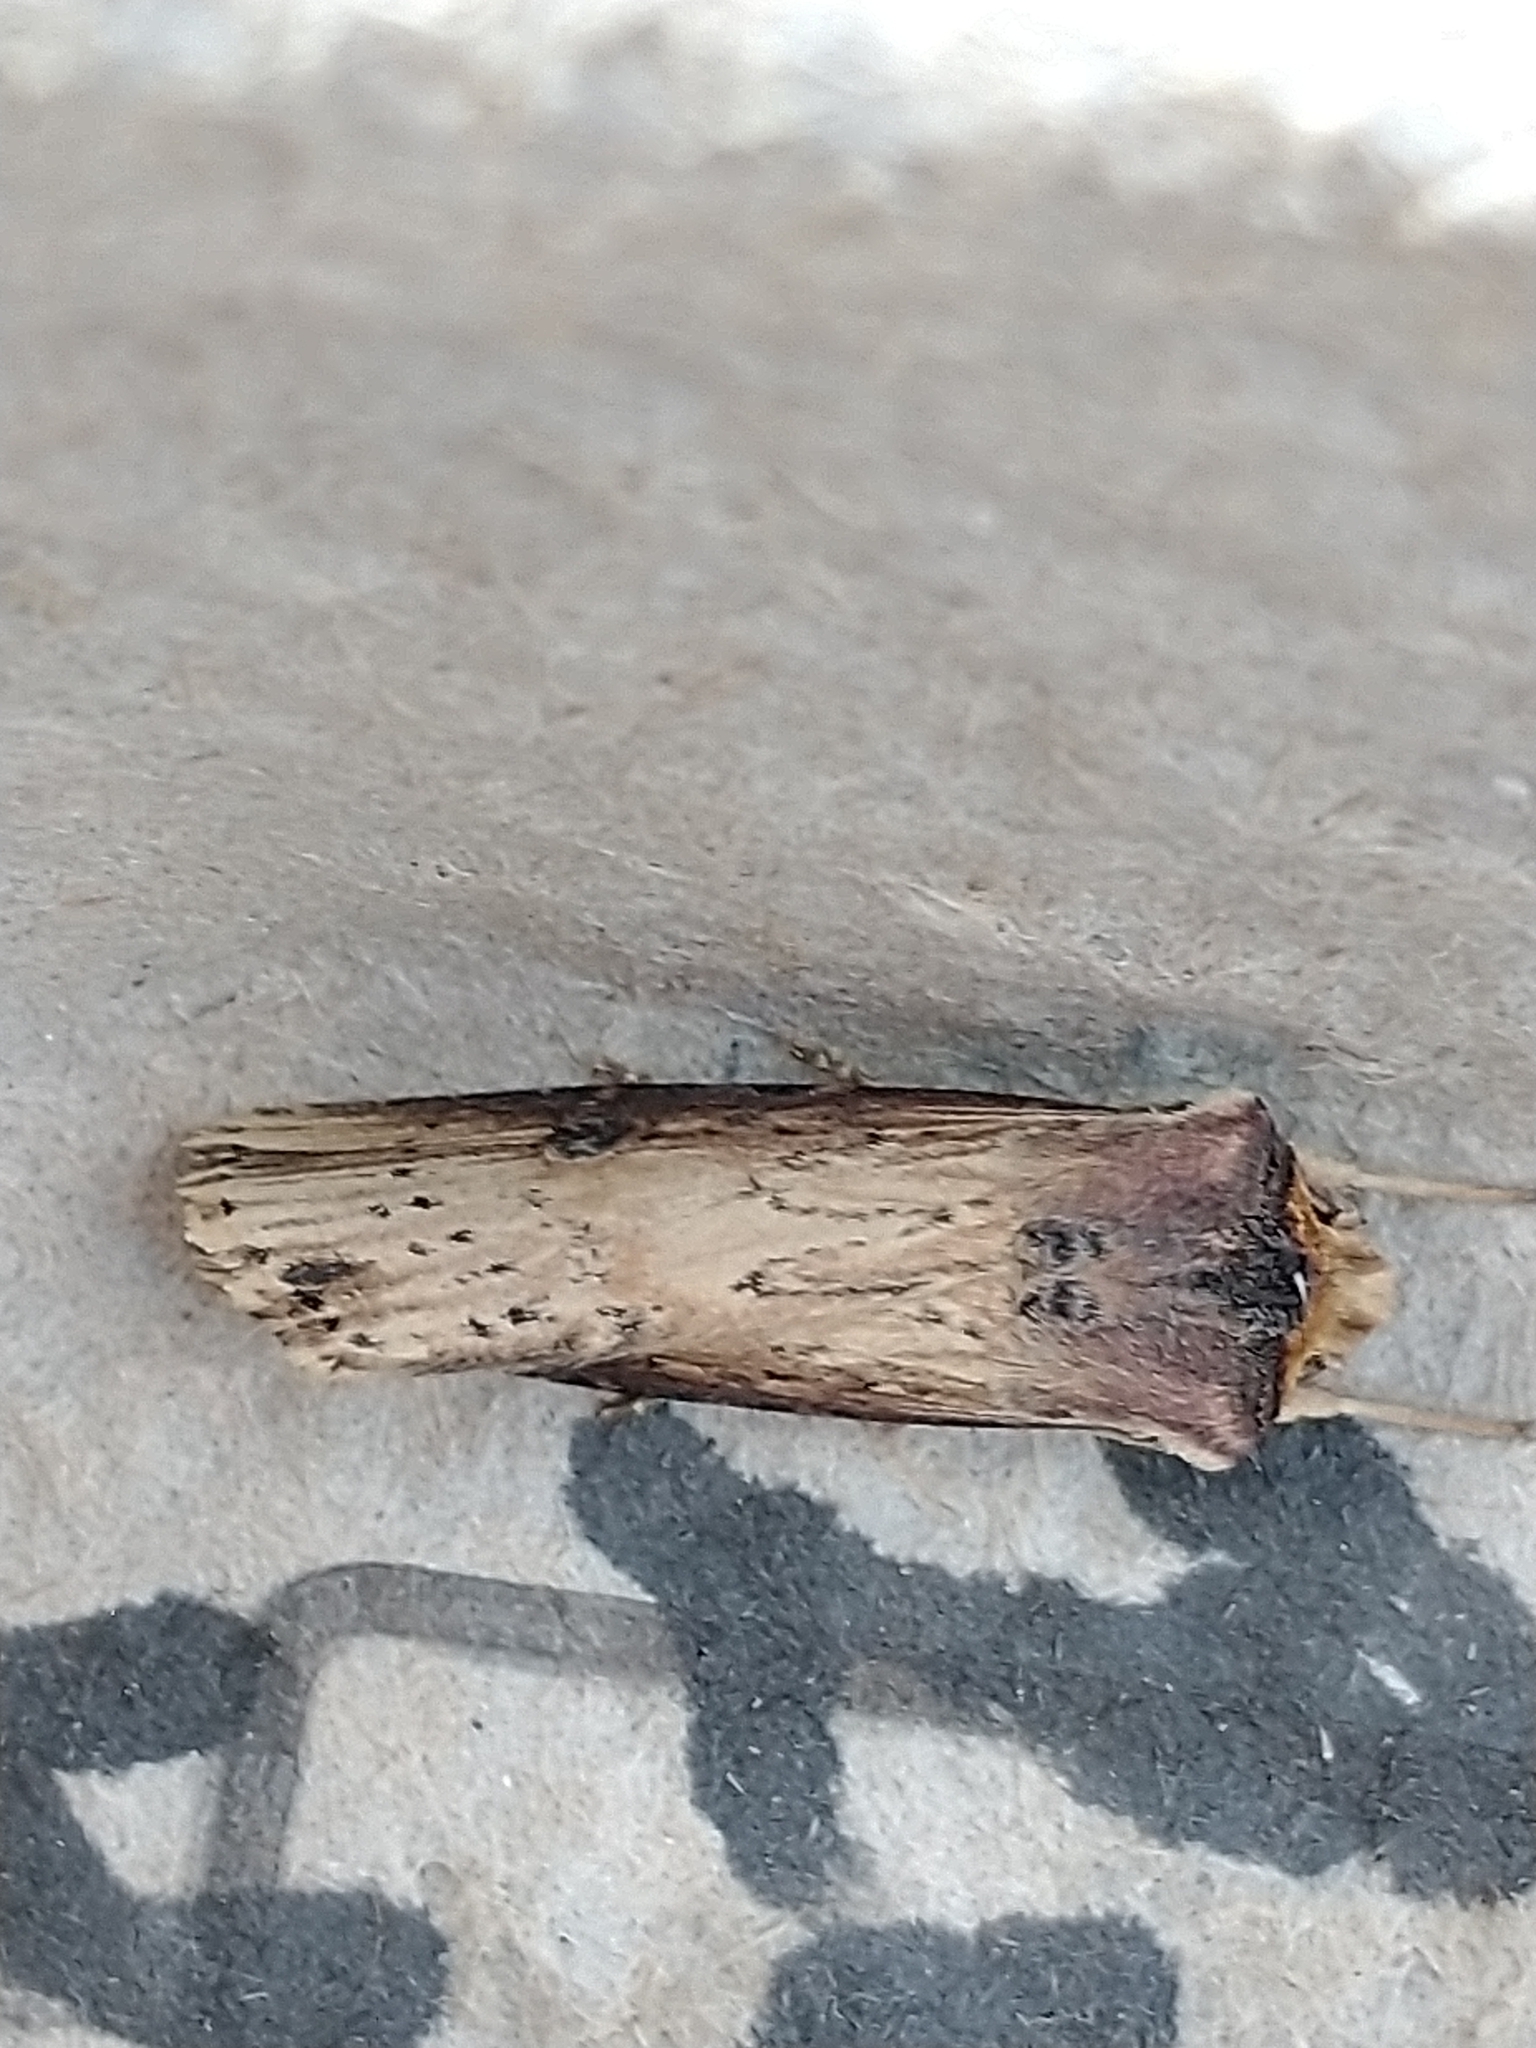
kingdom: Animalia
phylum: Arthropoda
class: Insecta
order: Lepidoptera
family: Noctuidae
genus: Axylia
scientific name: Axylia putris
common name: Flame
